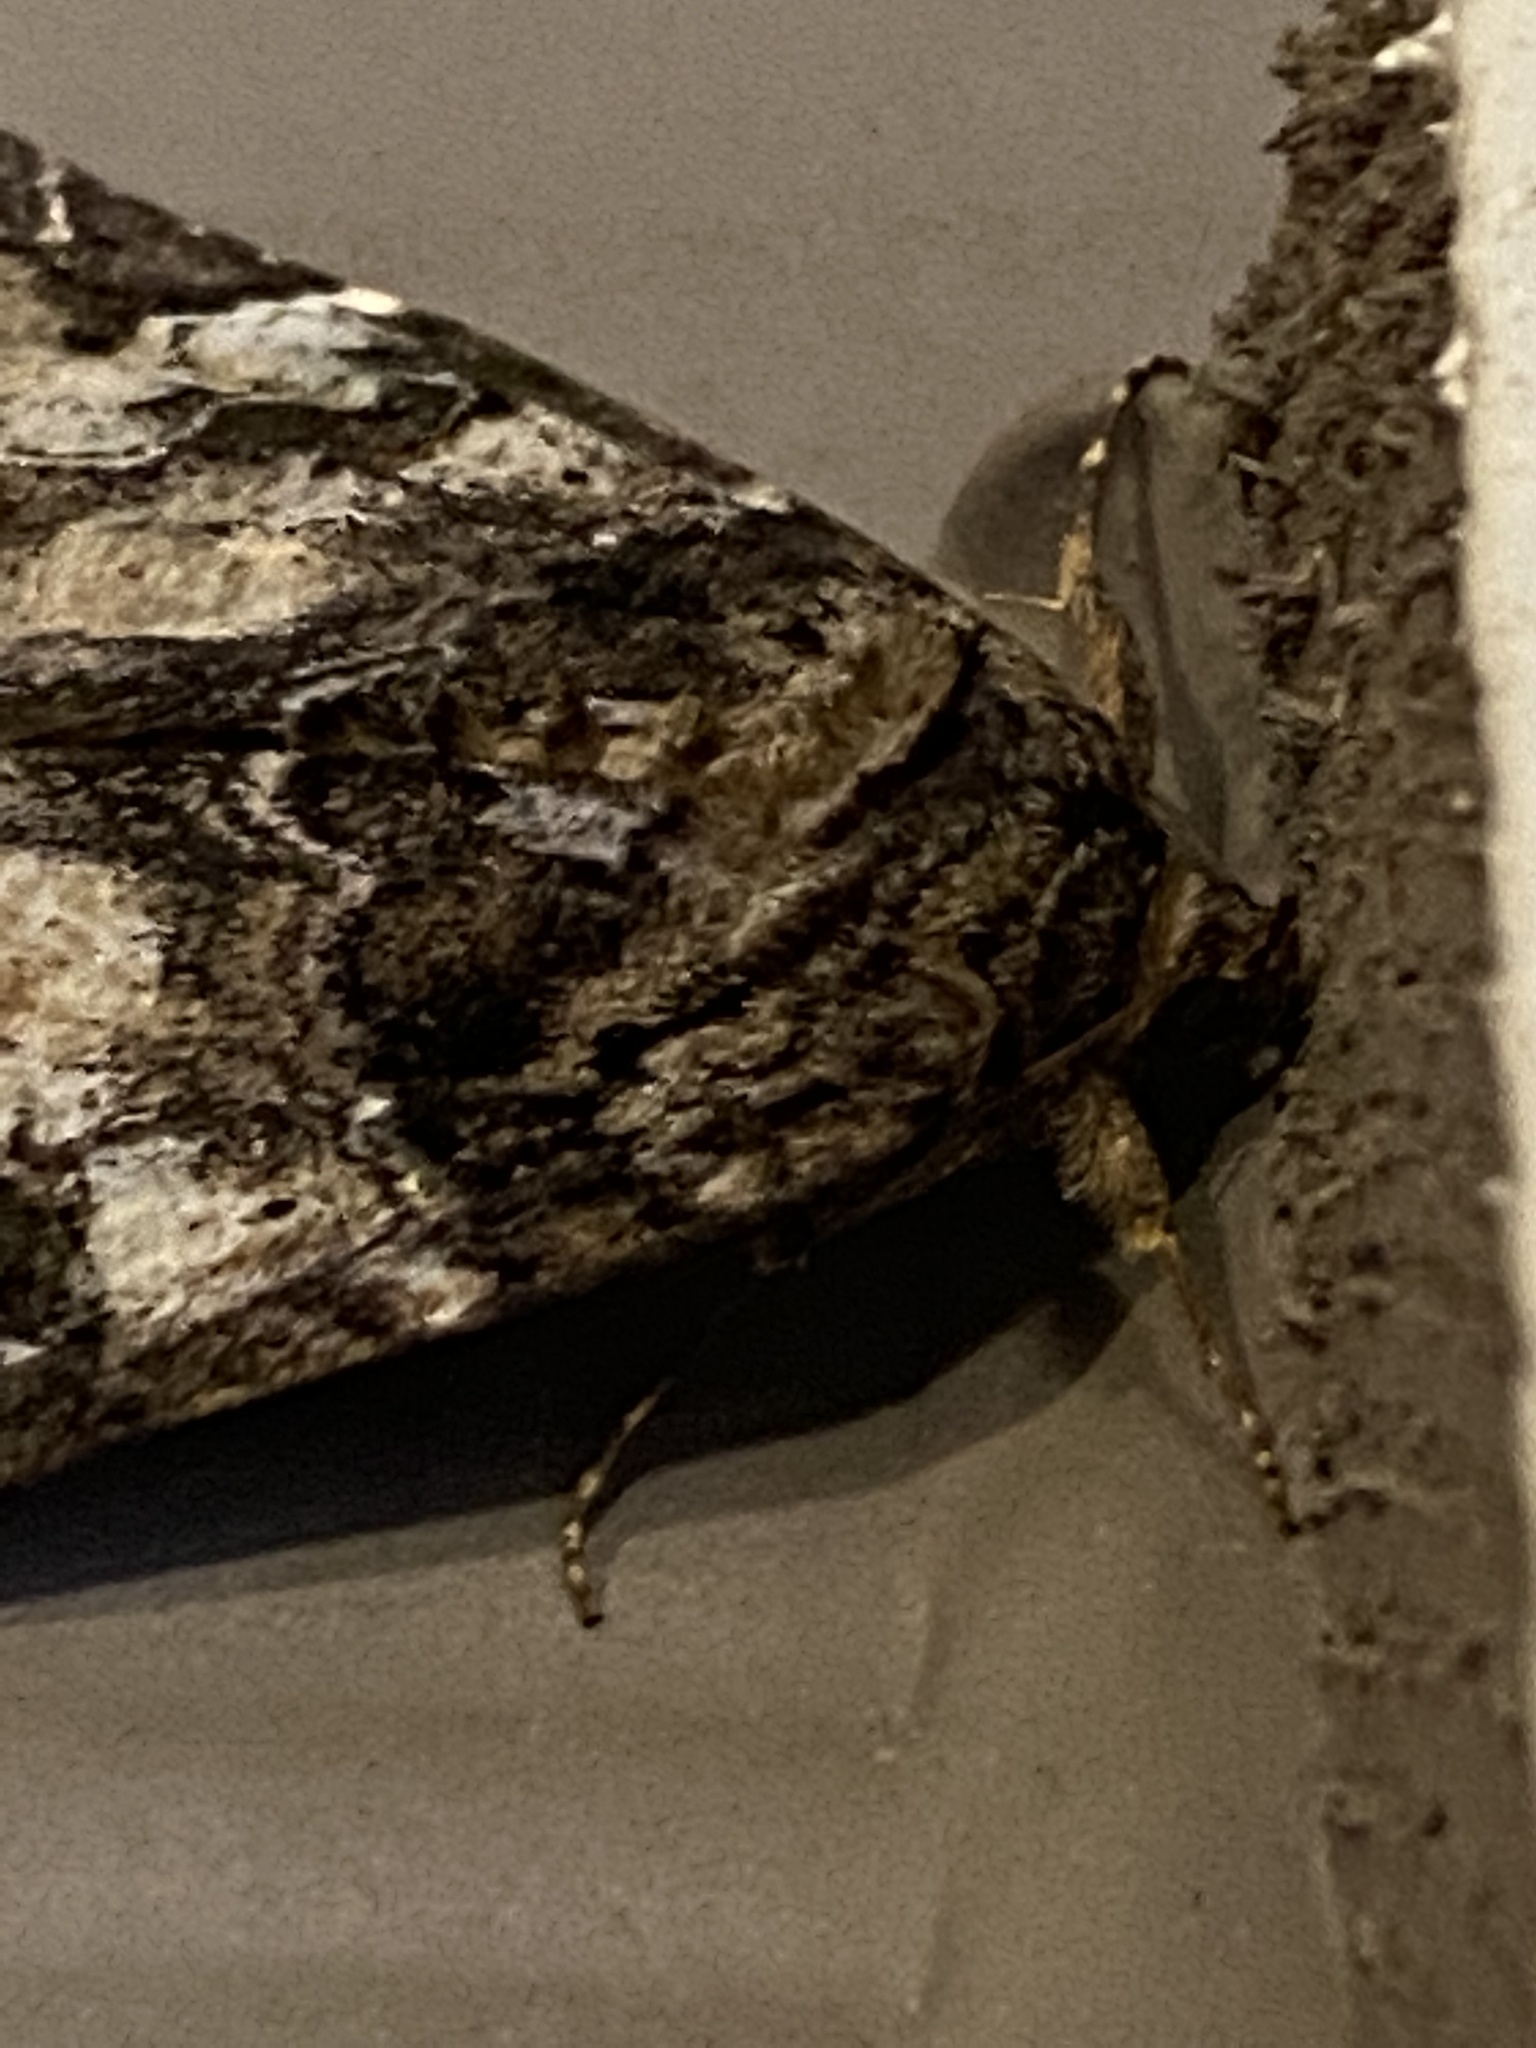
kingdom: Animalia
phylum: Arthropoda
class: Insecta
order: Lepidoptera
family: Erebidae
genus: Euparthenos
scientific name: Euparthenos nubilis
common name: Locust underwing
